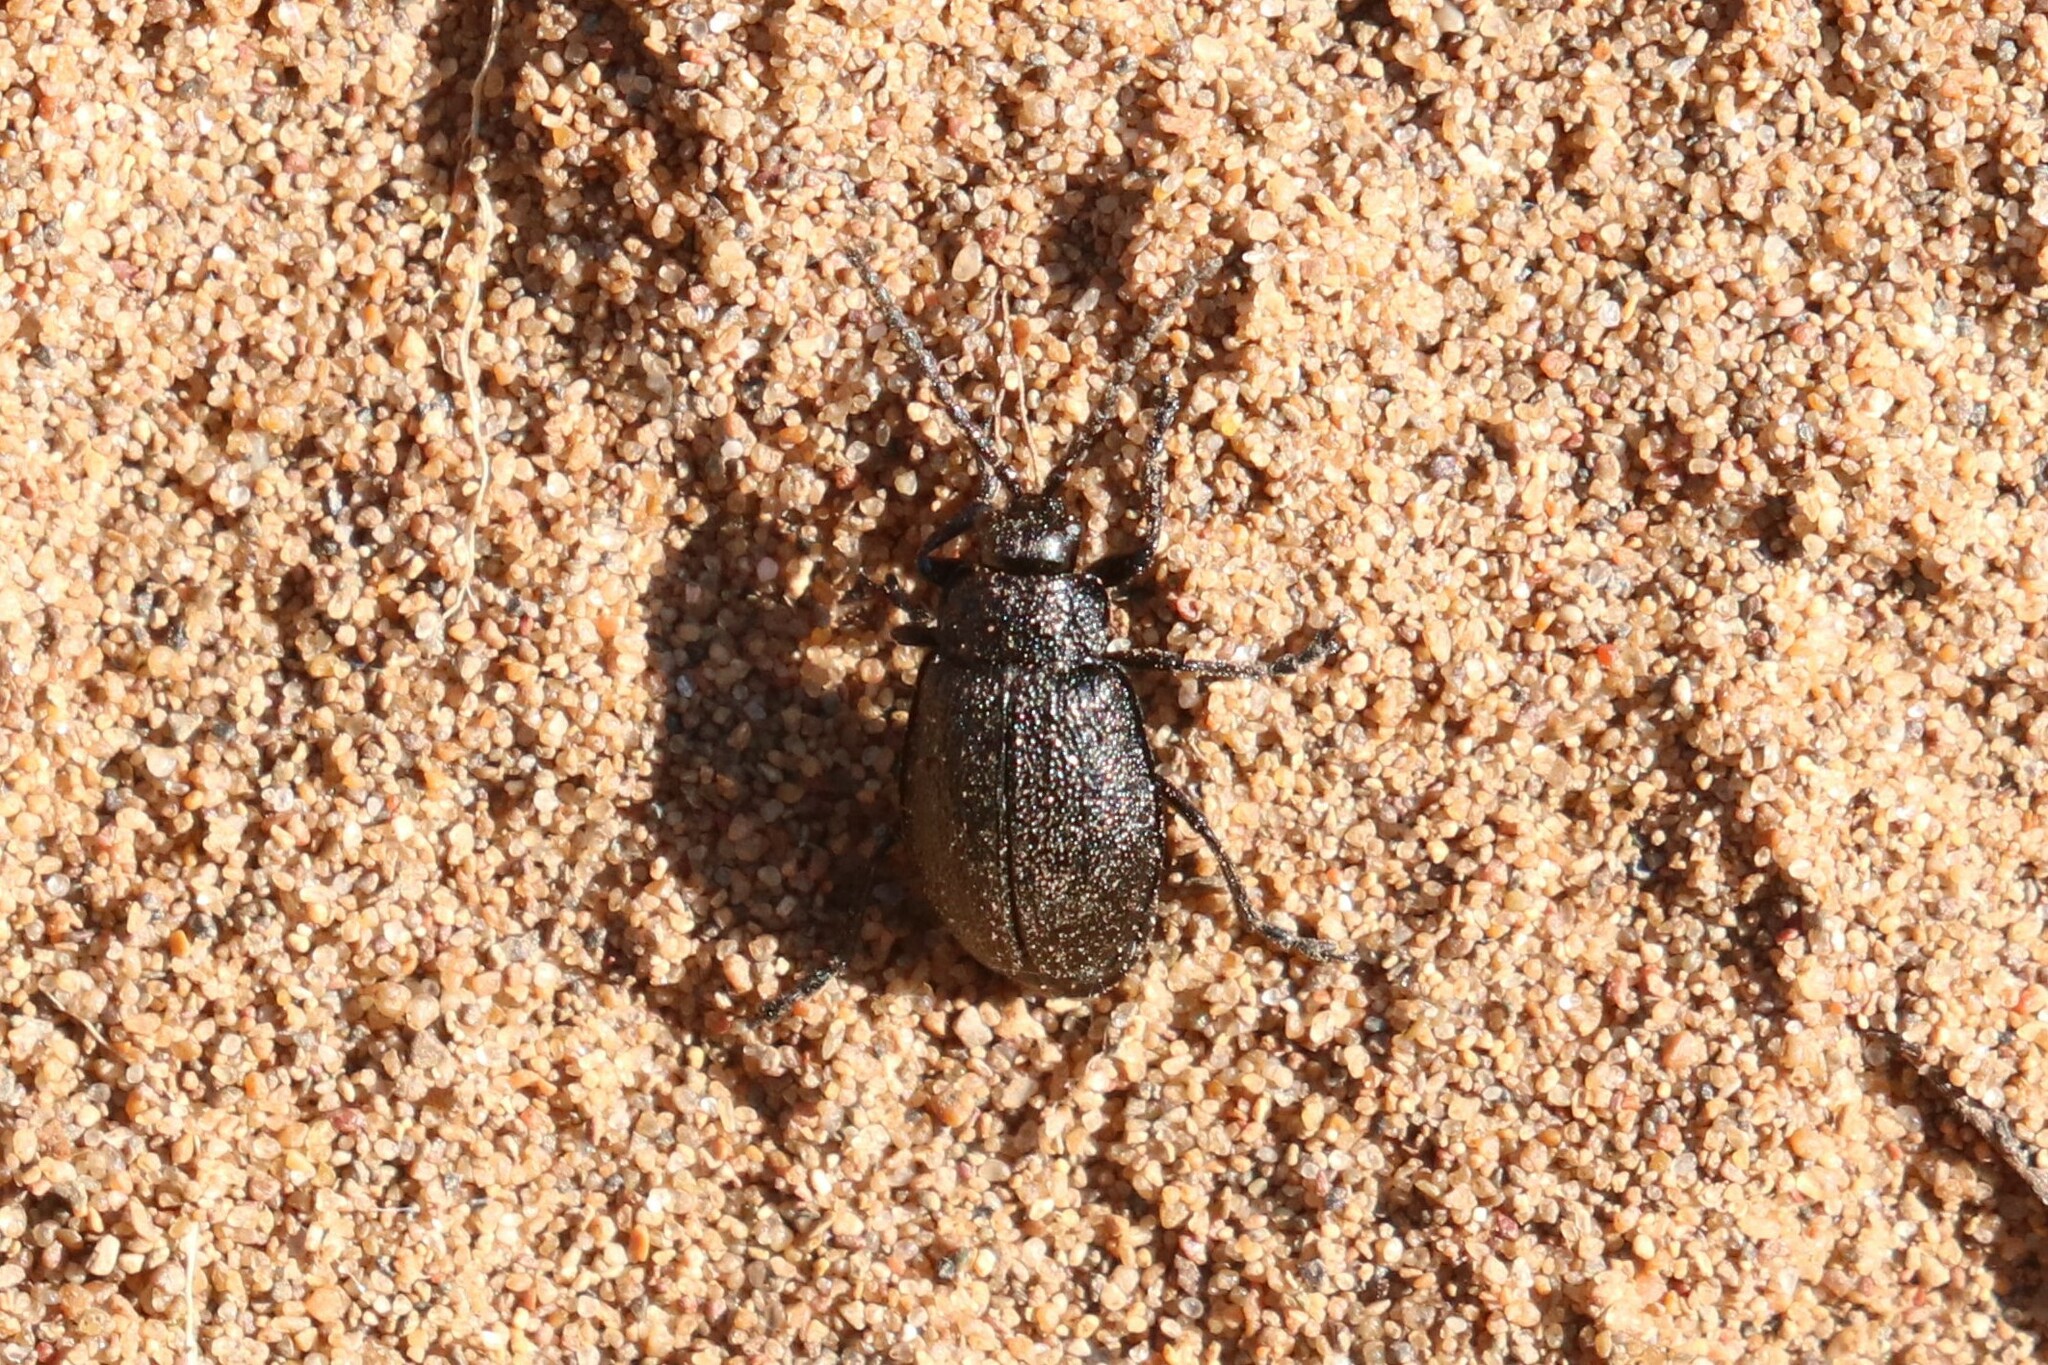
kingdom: Animalia
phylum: Arthropoda
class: Insecta
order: Coleoptera
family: Chrysomelidae
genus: Galeruca
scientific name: Galeruca tanaceti
